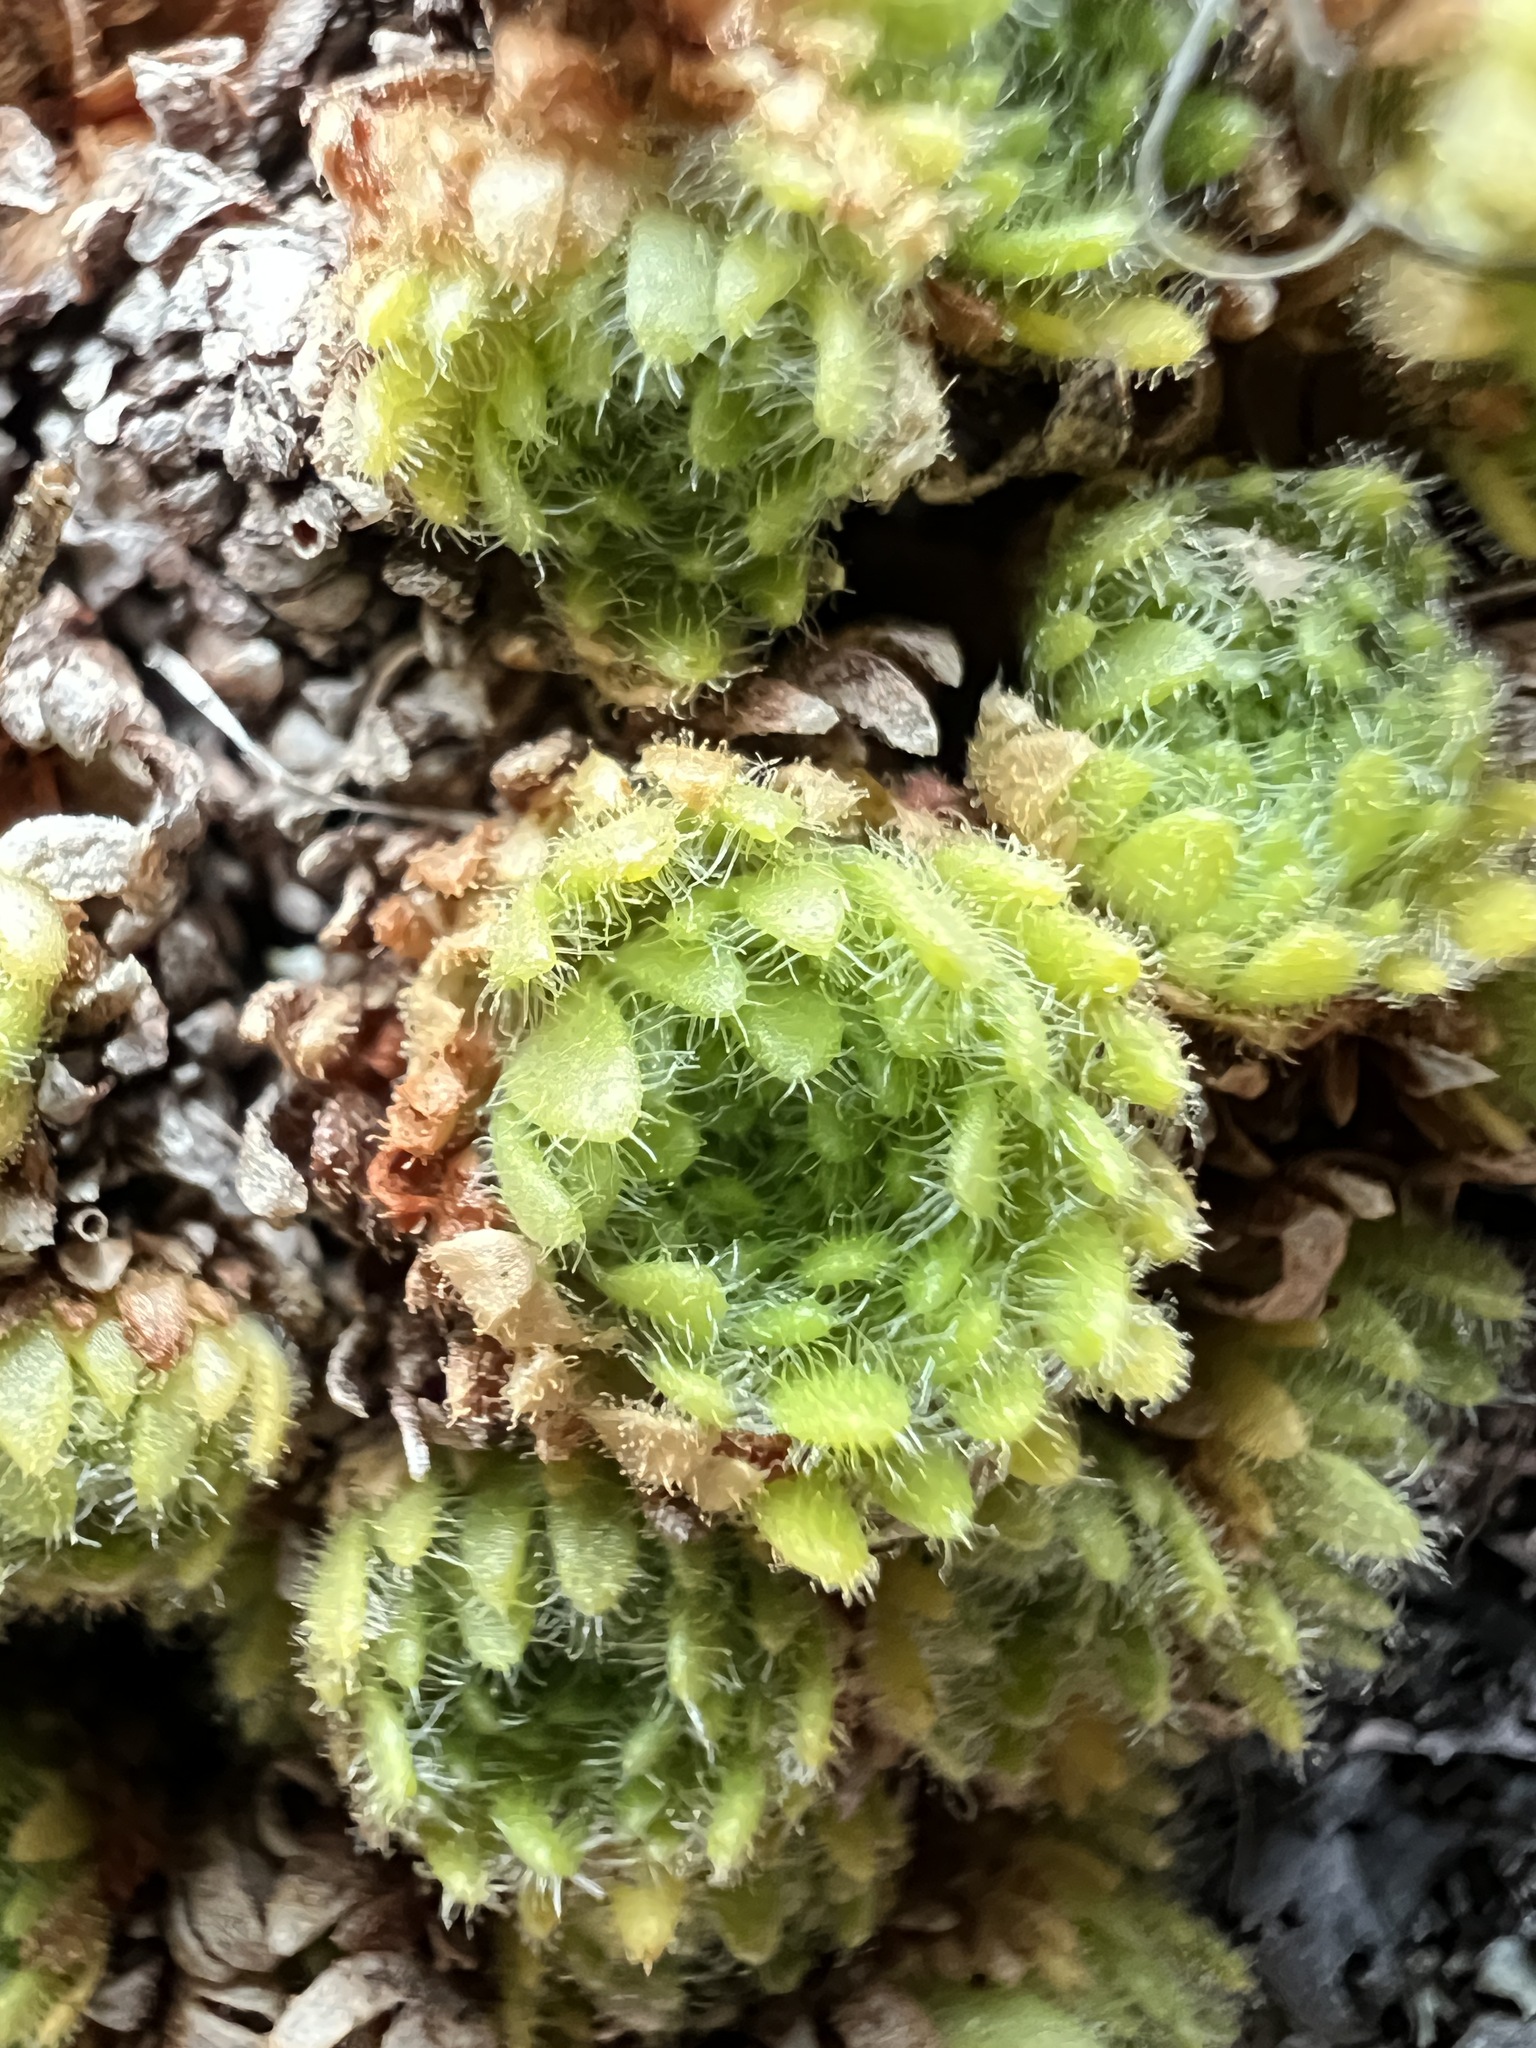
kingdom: Plantae
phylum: Tracheophyta
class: Magnoliopsida
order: Saxifragales
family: Saxifragaceae
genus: Saxifraga
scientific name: Saxifraga cespitosa
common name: Tufted saxifrage
